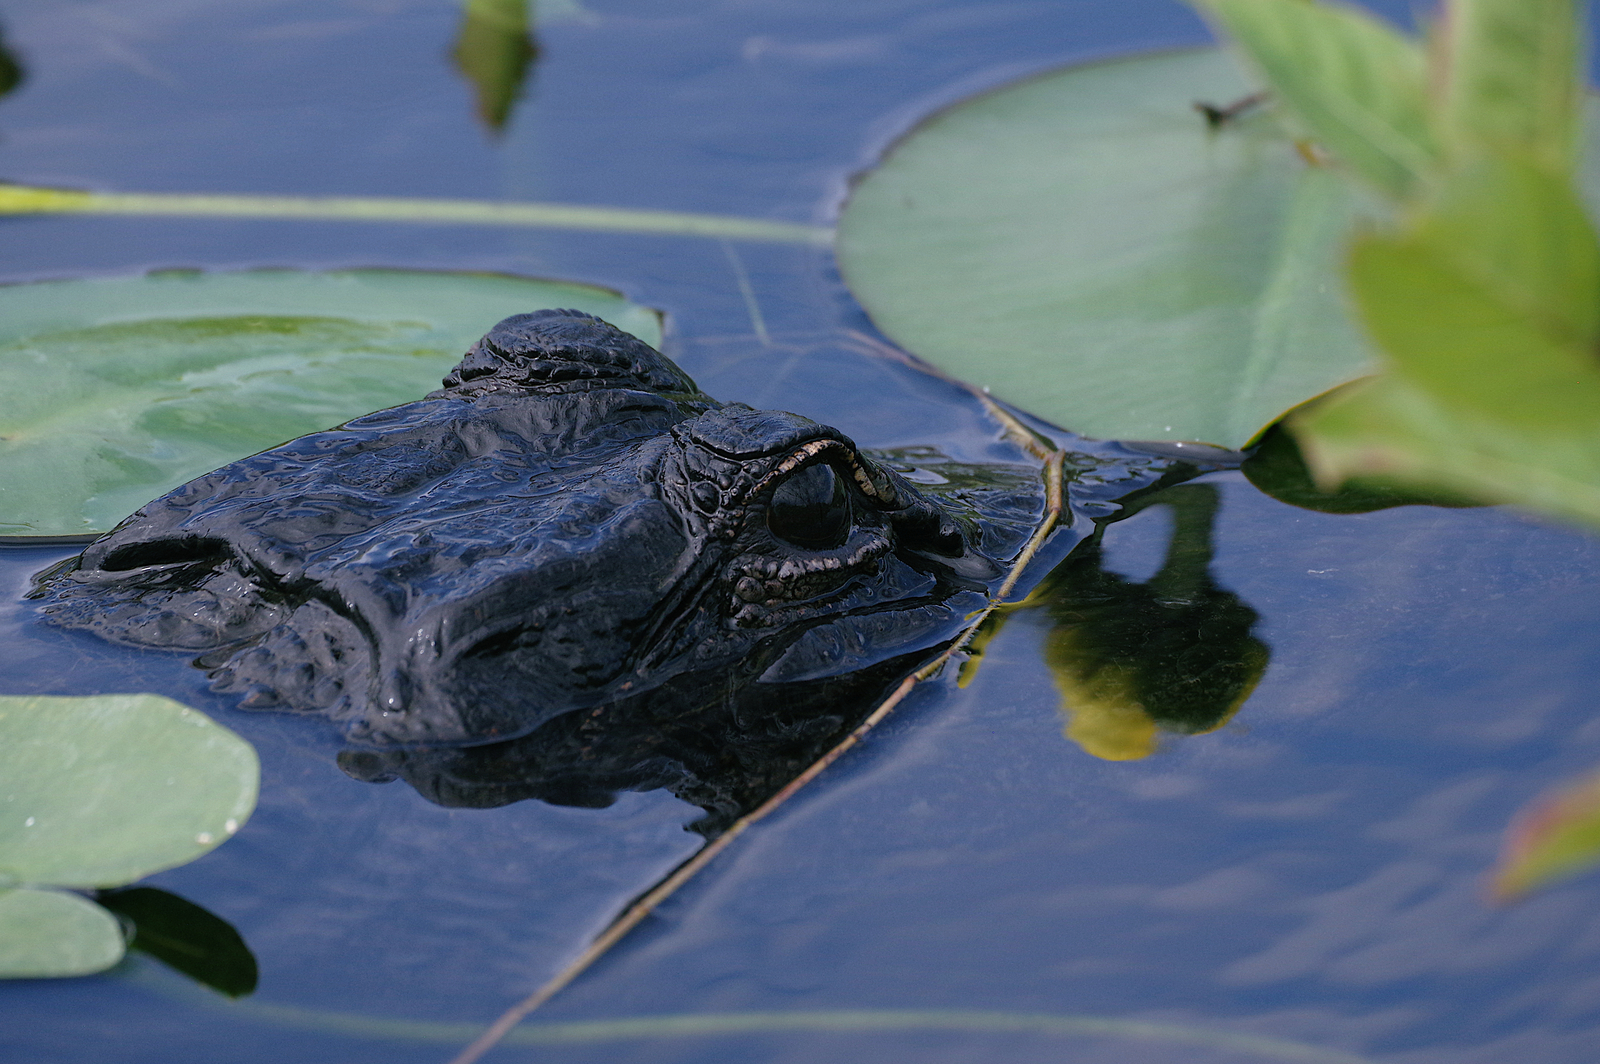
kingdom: Animalia
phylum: Chordata
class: Crocodylia
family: Alligatoridae
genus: Alligator
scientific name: Alligator mississippiensis
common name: American alligator
